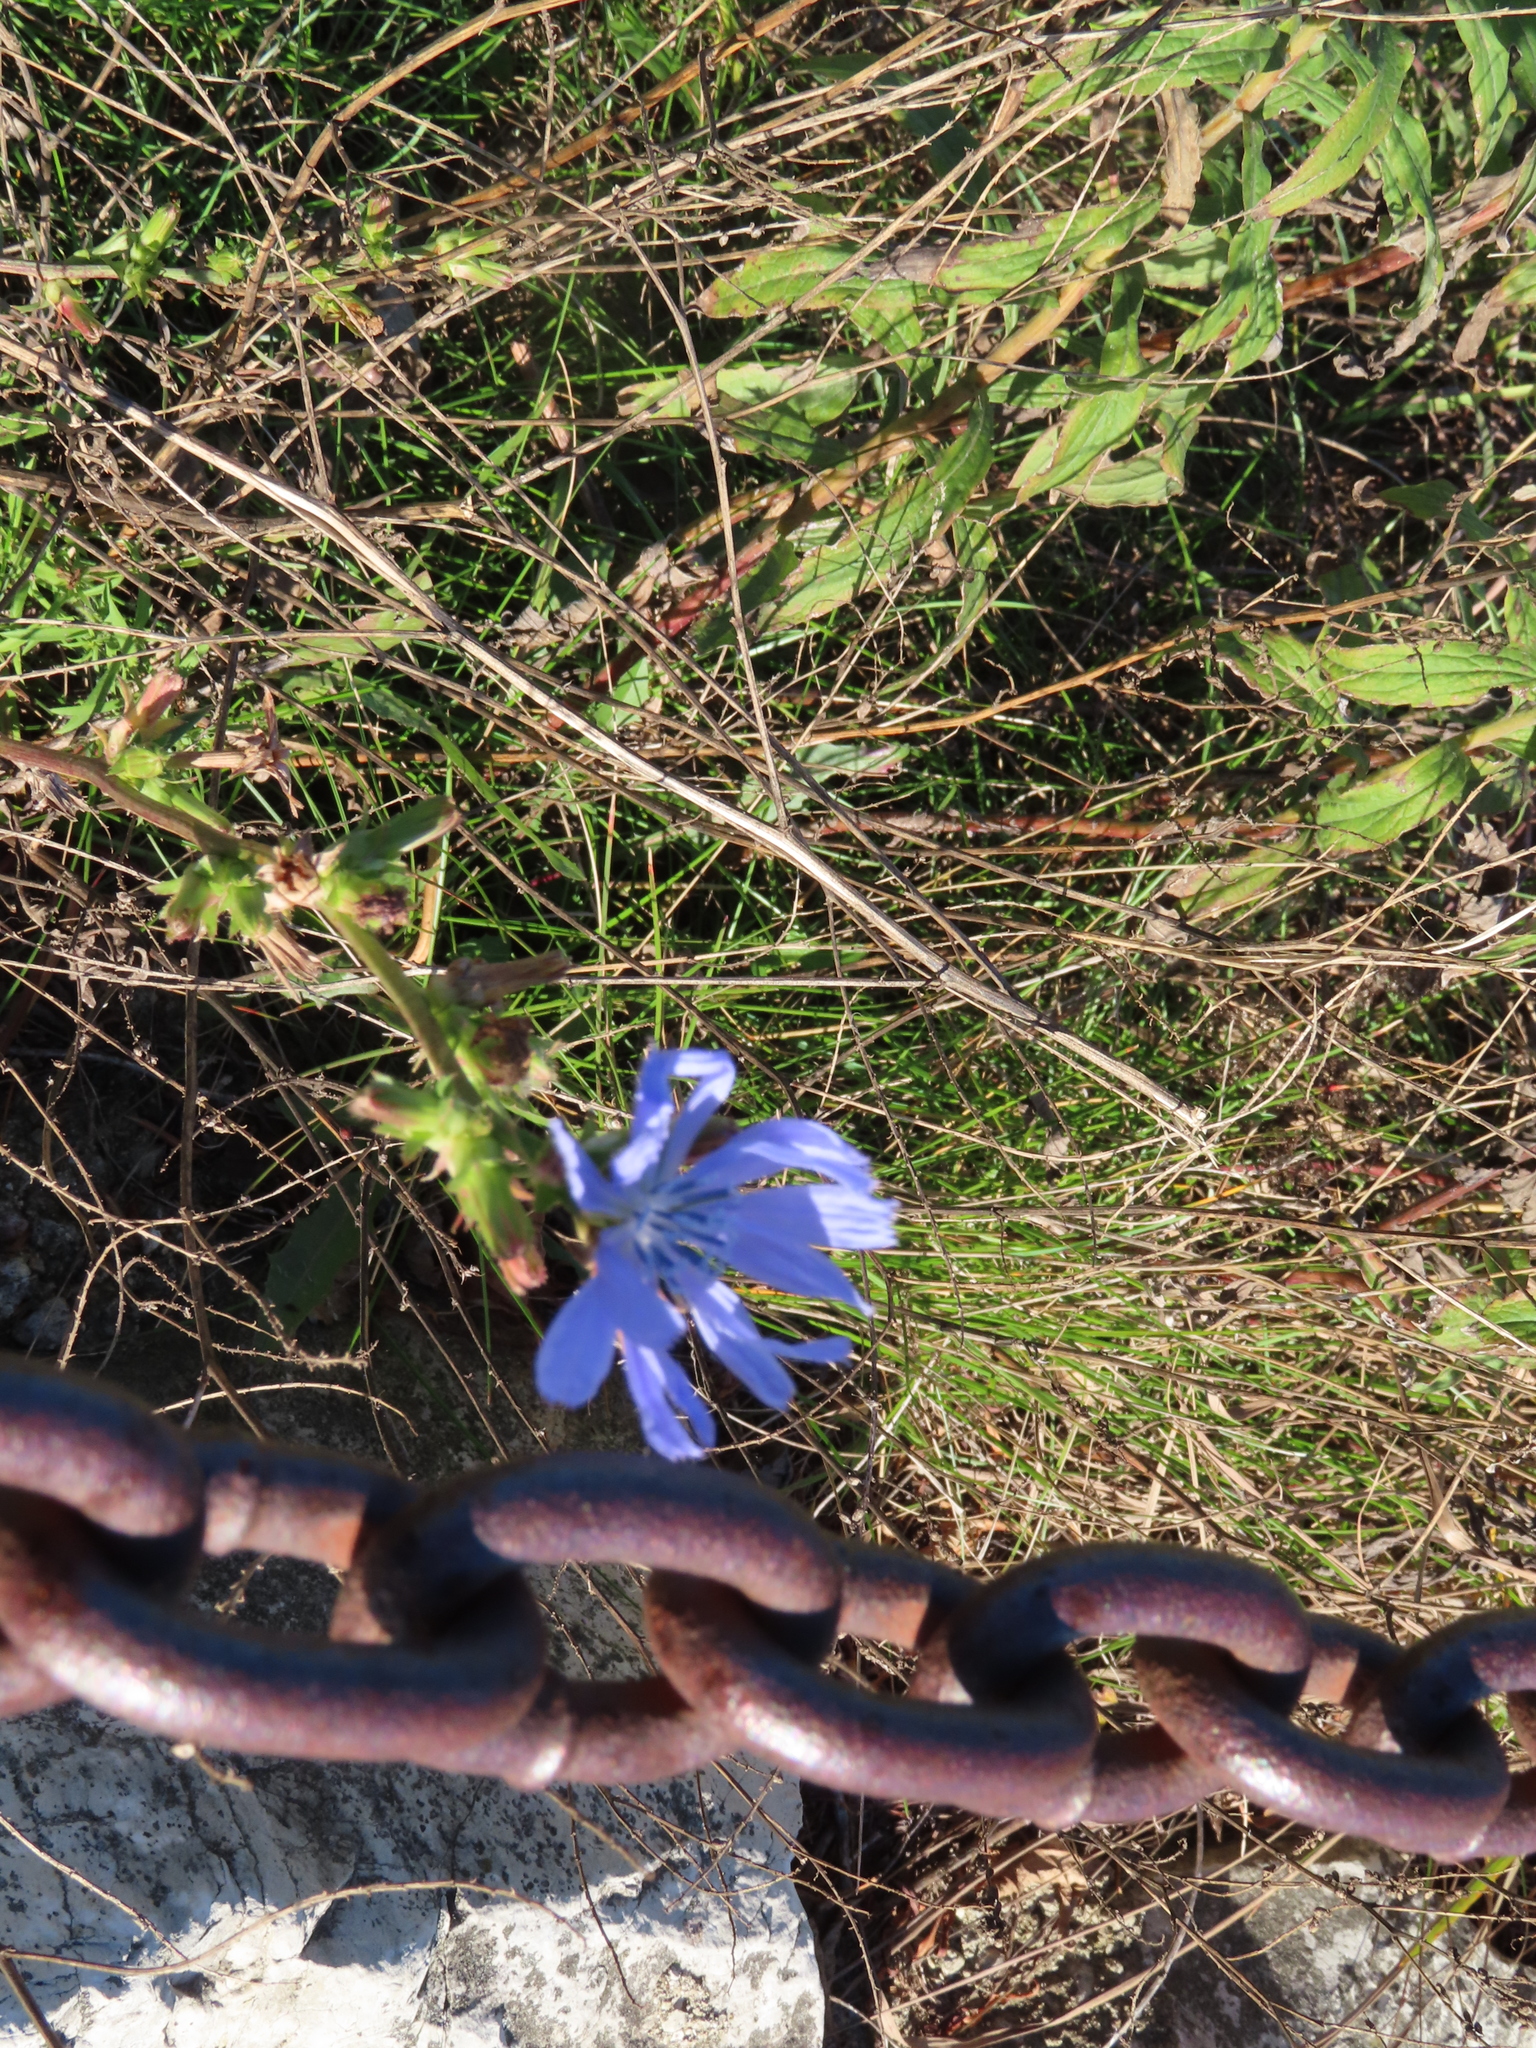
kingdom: Plantae
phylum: Tracheophyta
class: Magnoliopsida
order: Asterales
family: Asteraceae
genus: Cichorium
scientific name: Cichorium intybus
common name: Chicory
